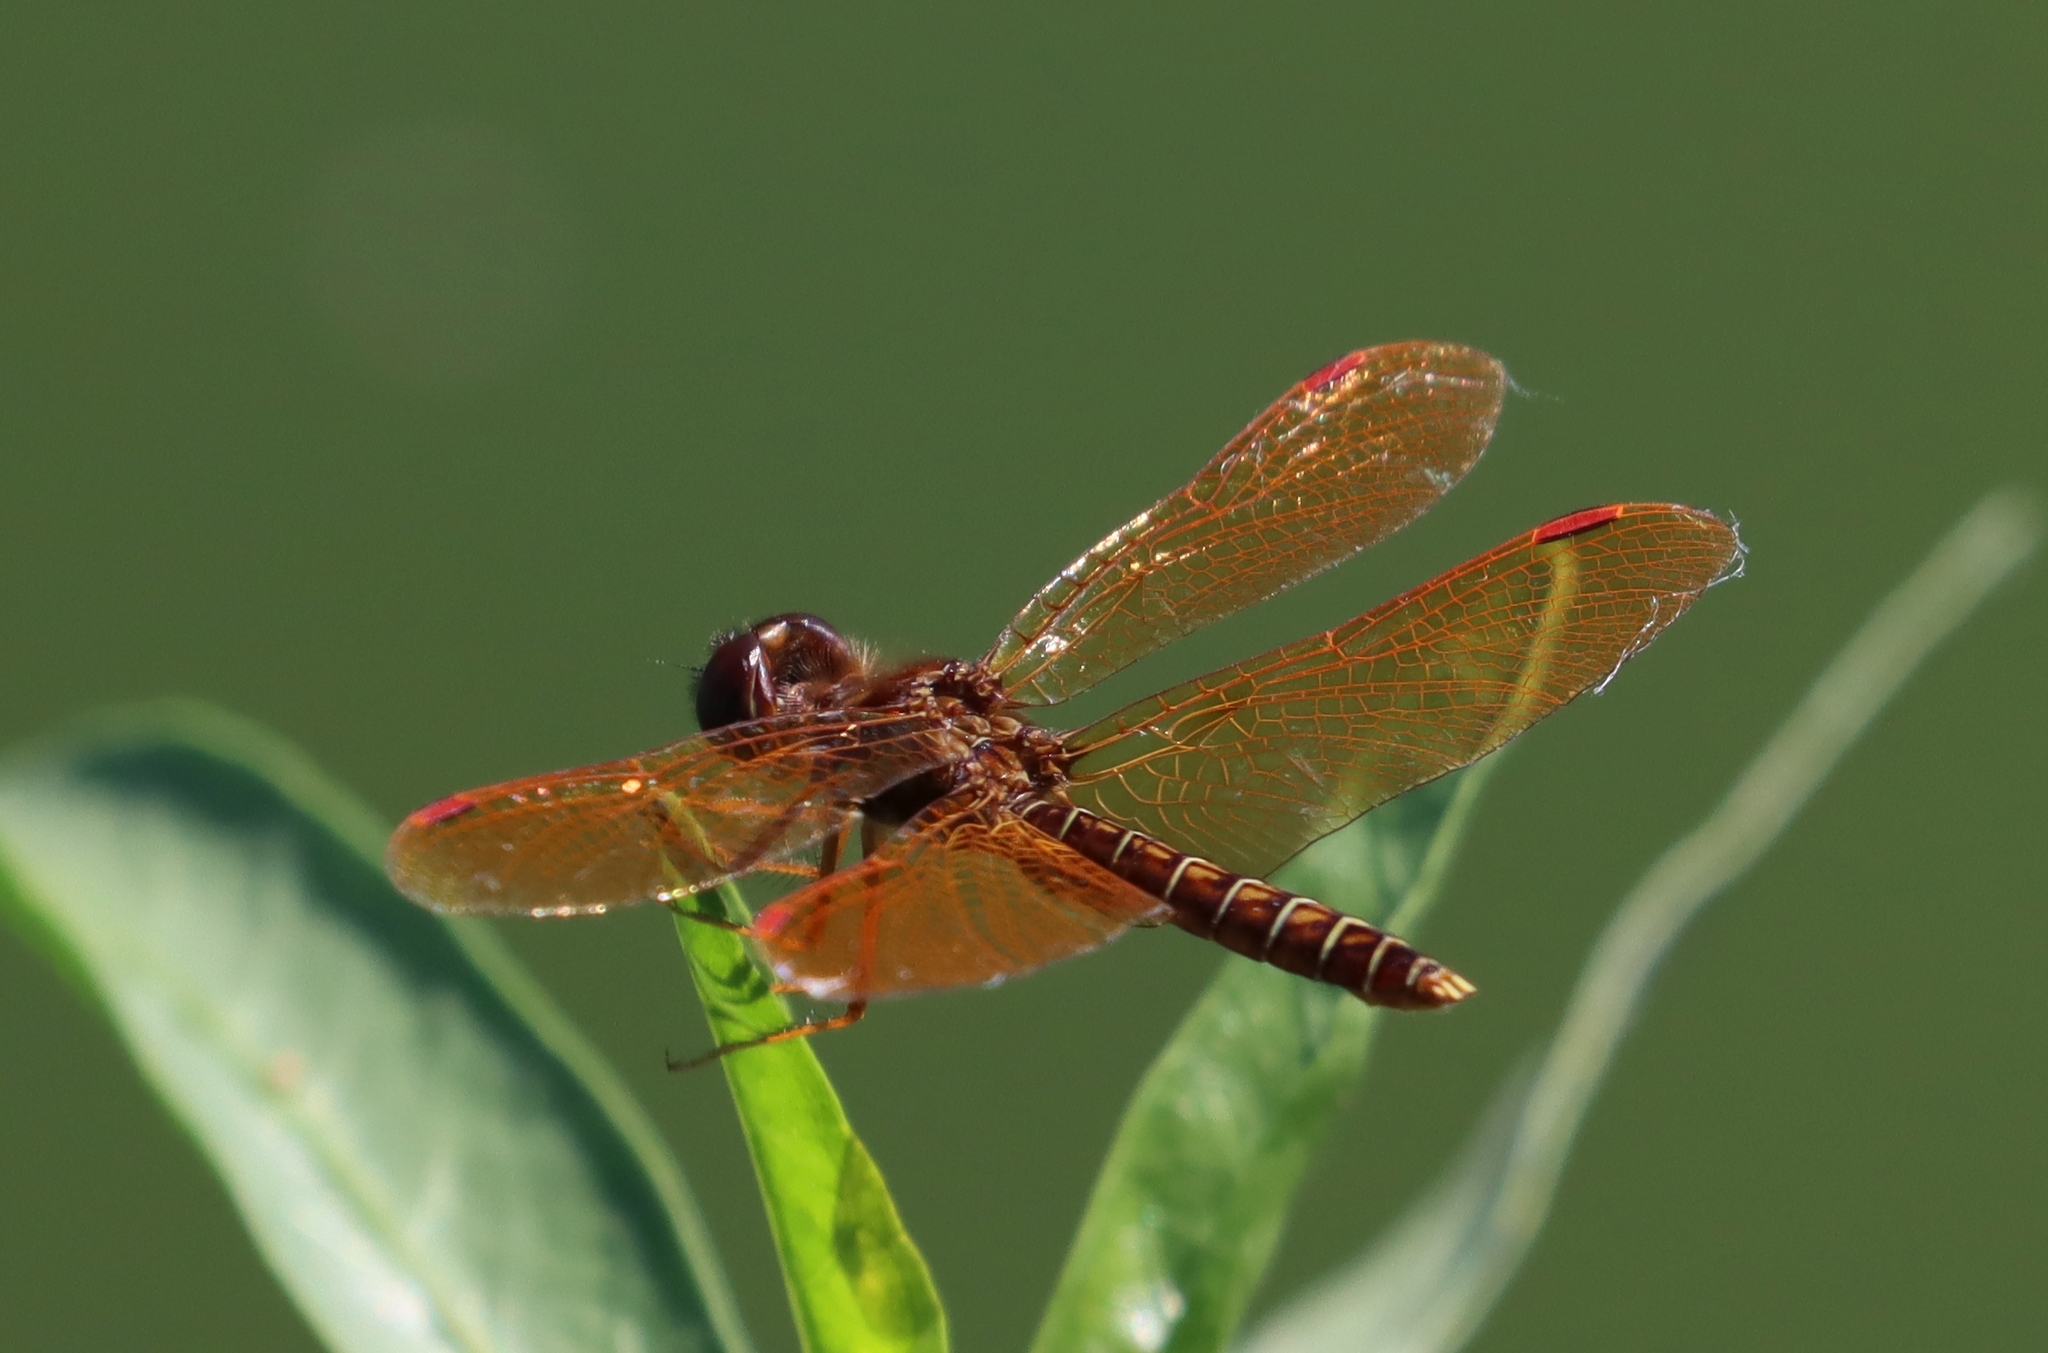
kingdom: Animalia
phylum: Arthropoda
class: Insecta
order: Odonata
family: Libellulidae
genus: Perithemis
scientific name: Perithemis tenera
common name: Eastern amberwing
